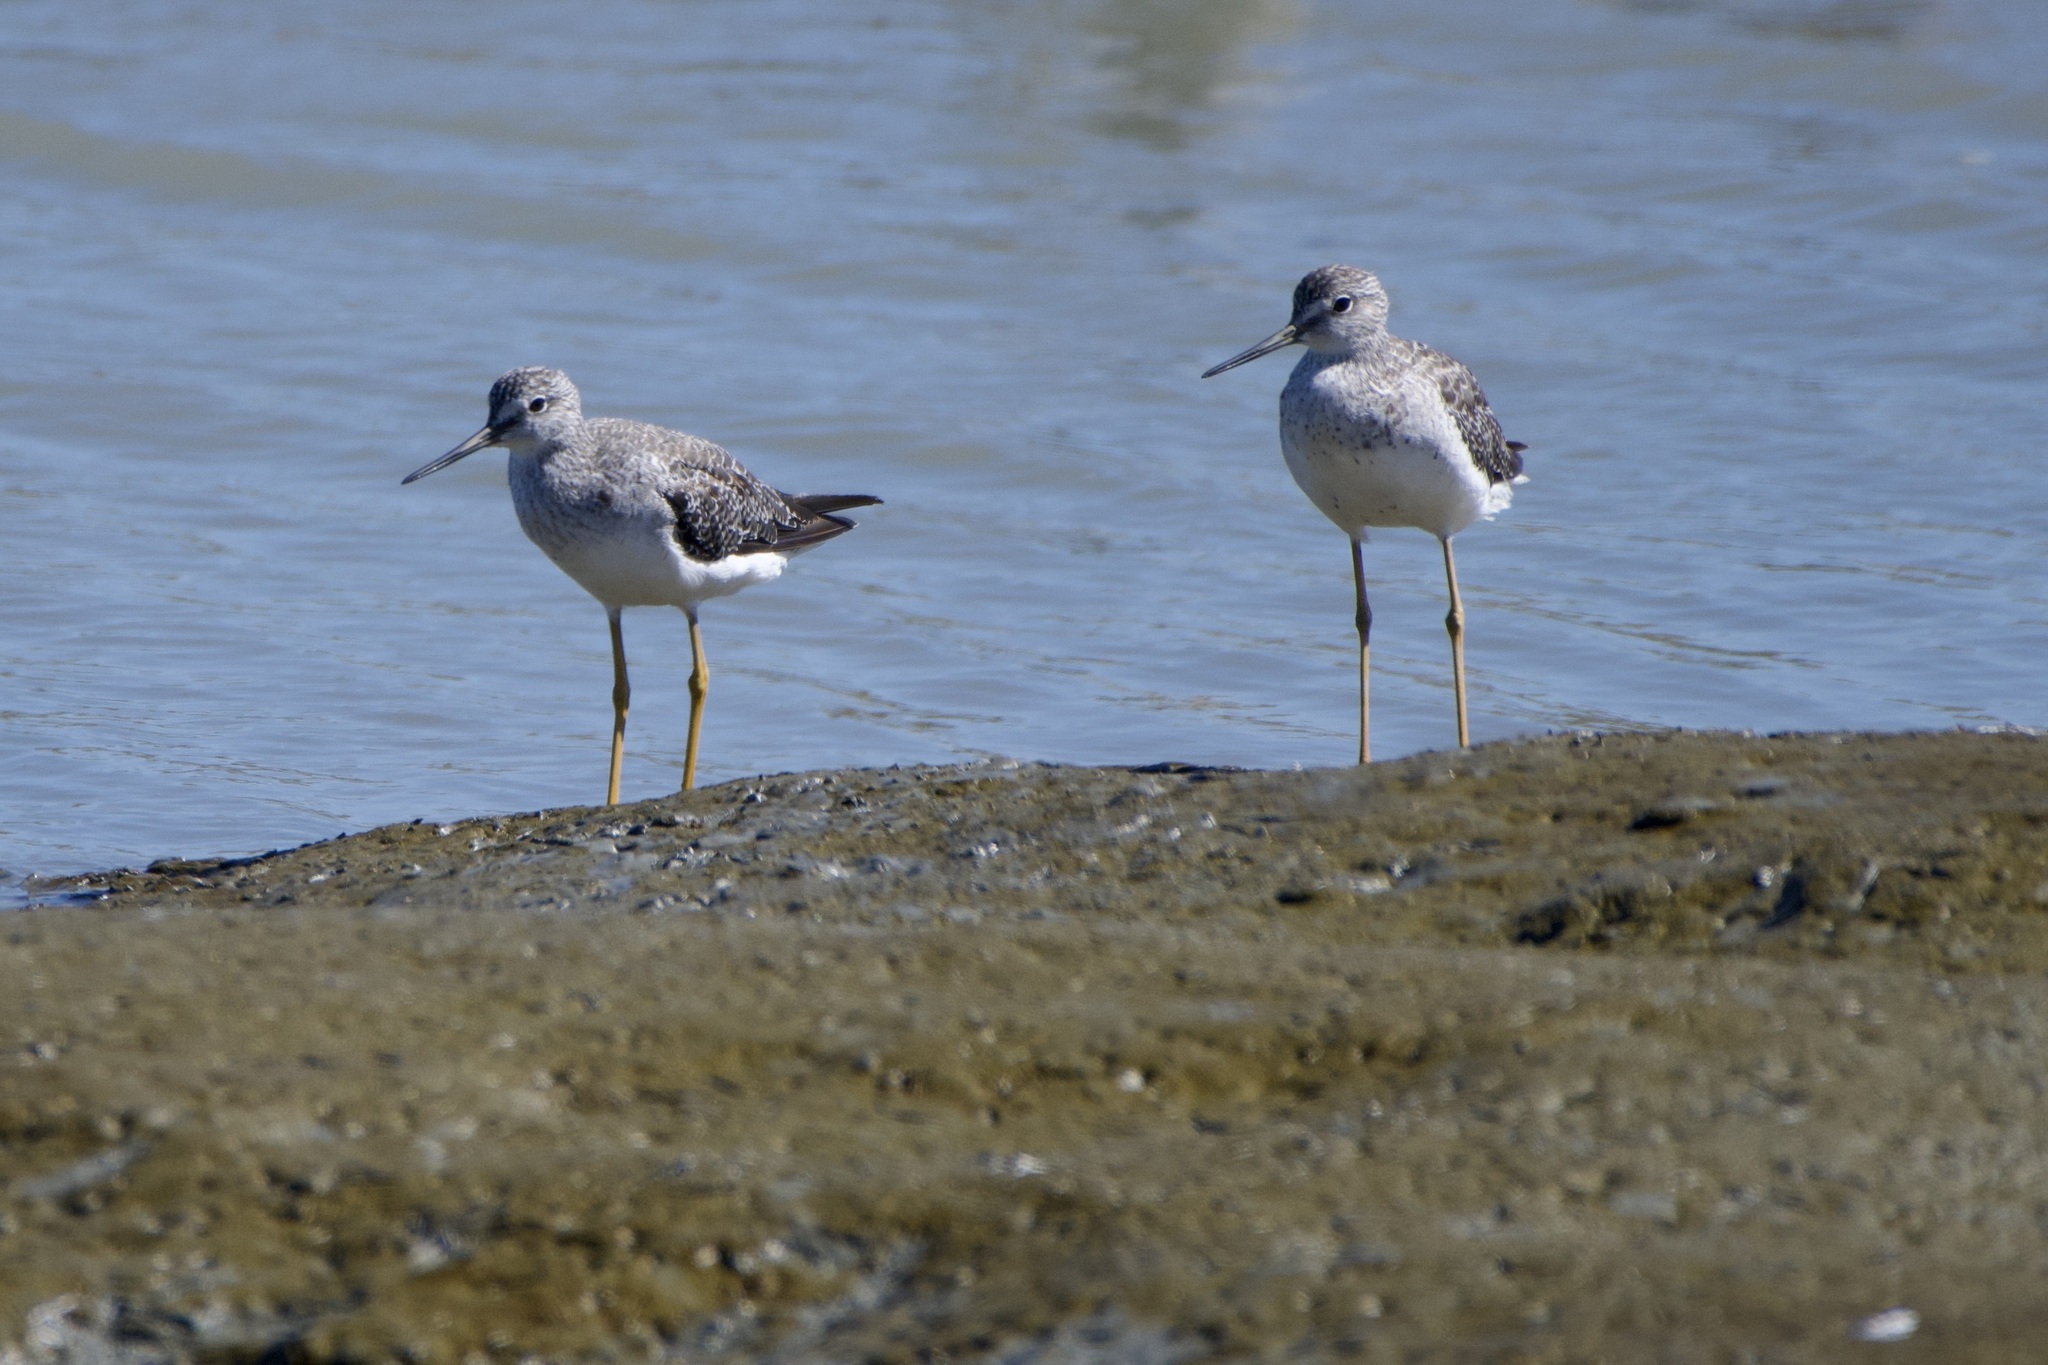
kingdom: Animalia
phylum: Chordata
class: Aves
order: Charadriiformes
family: Scolopacidae
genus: Tringa
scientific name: Tringa melanoleuca
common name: Greater yellowlegs
